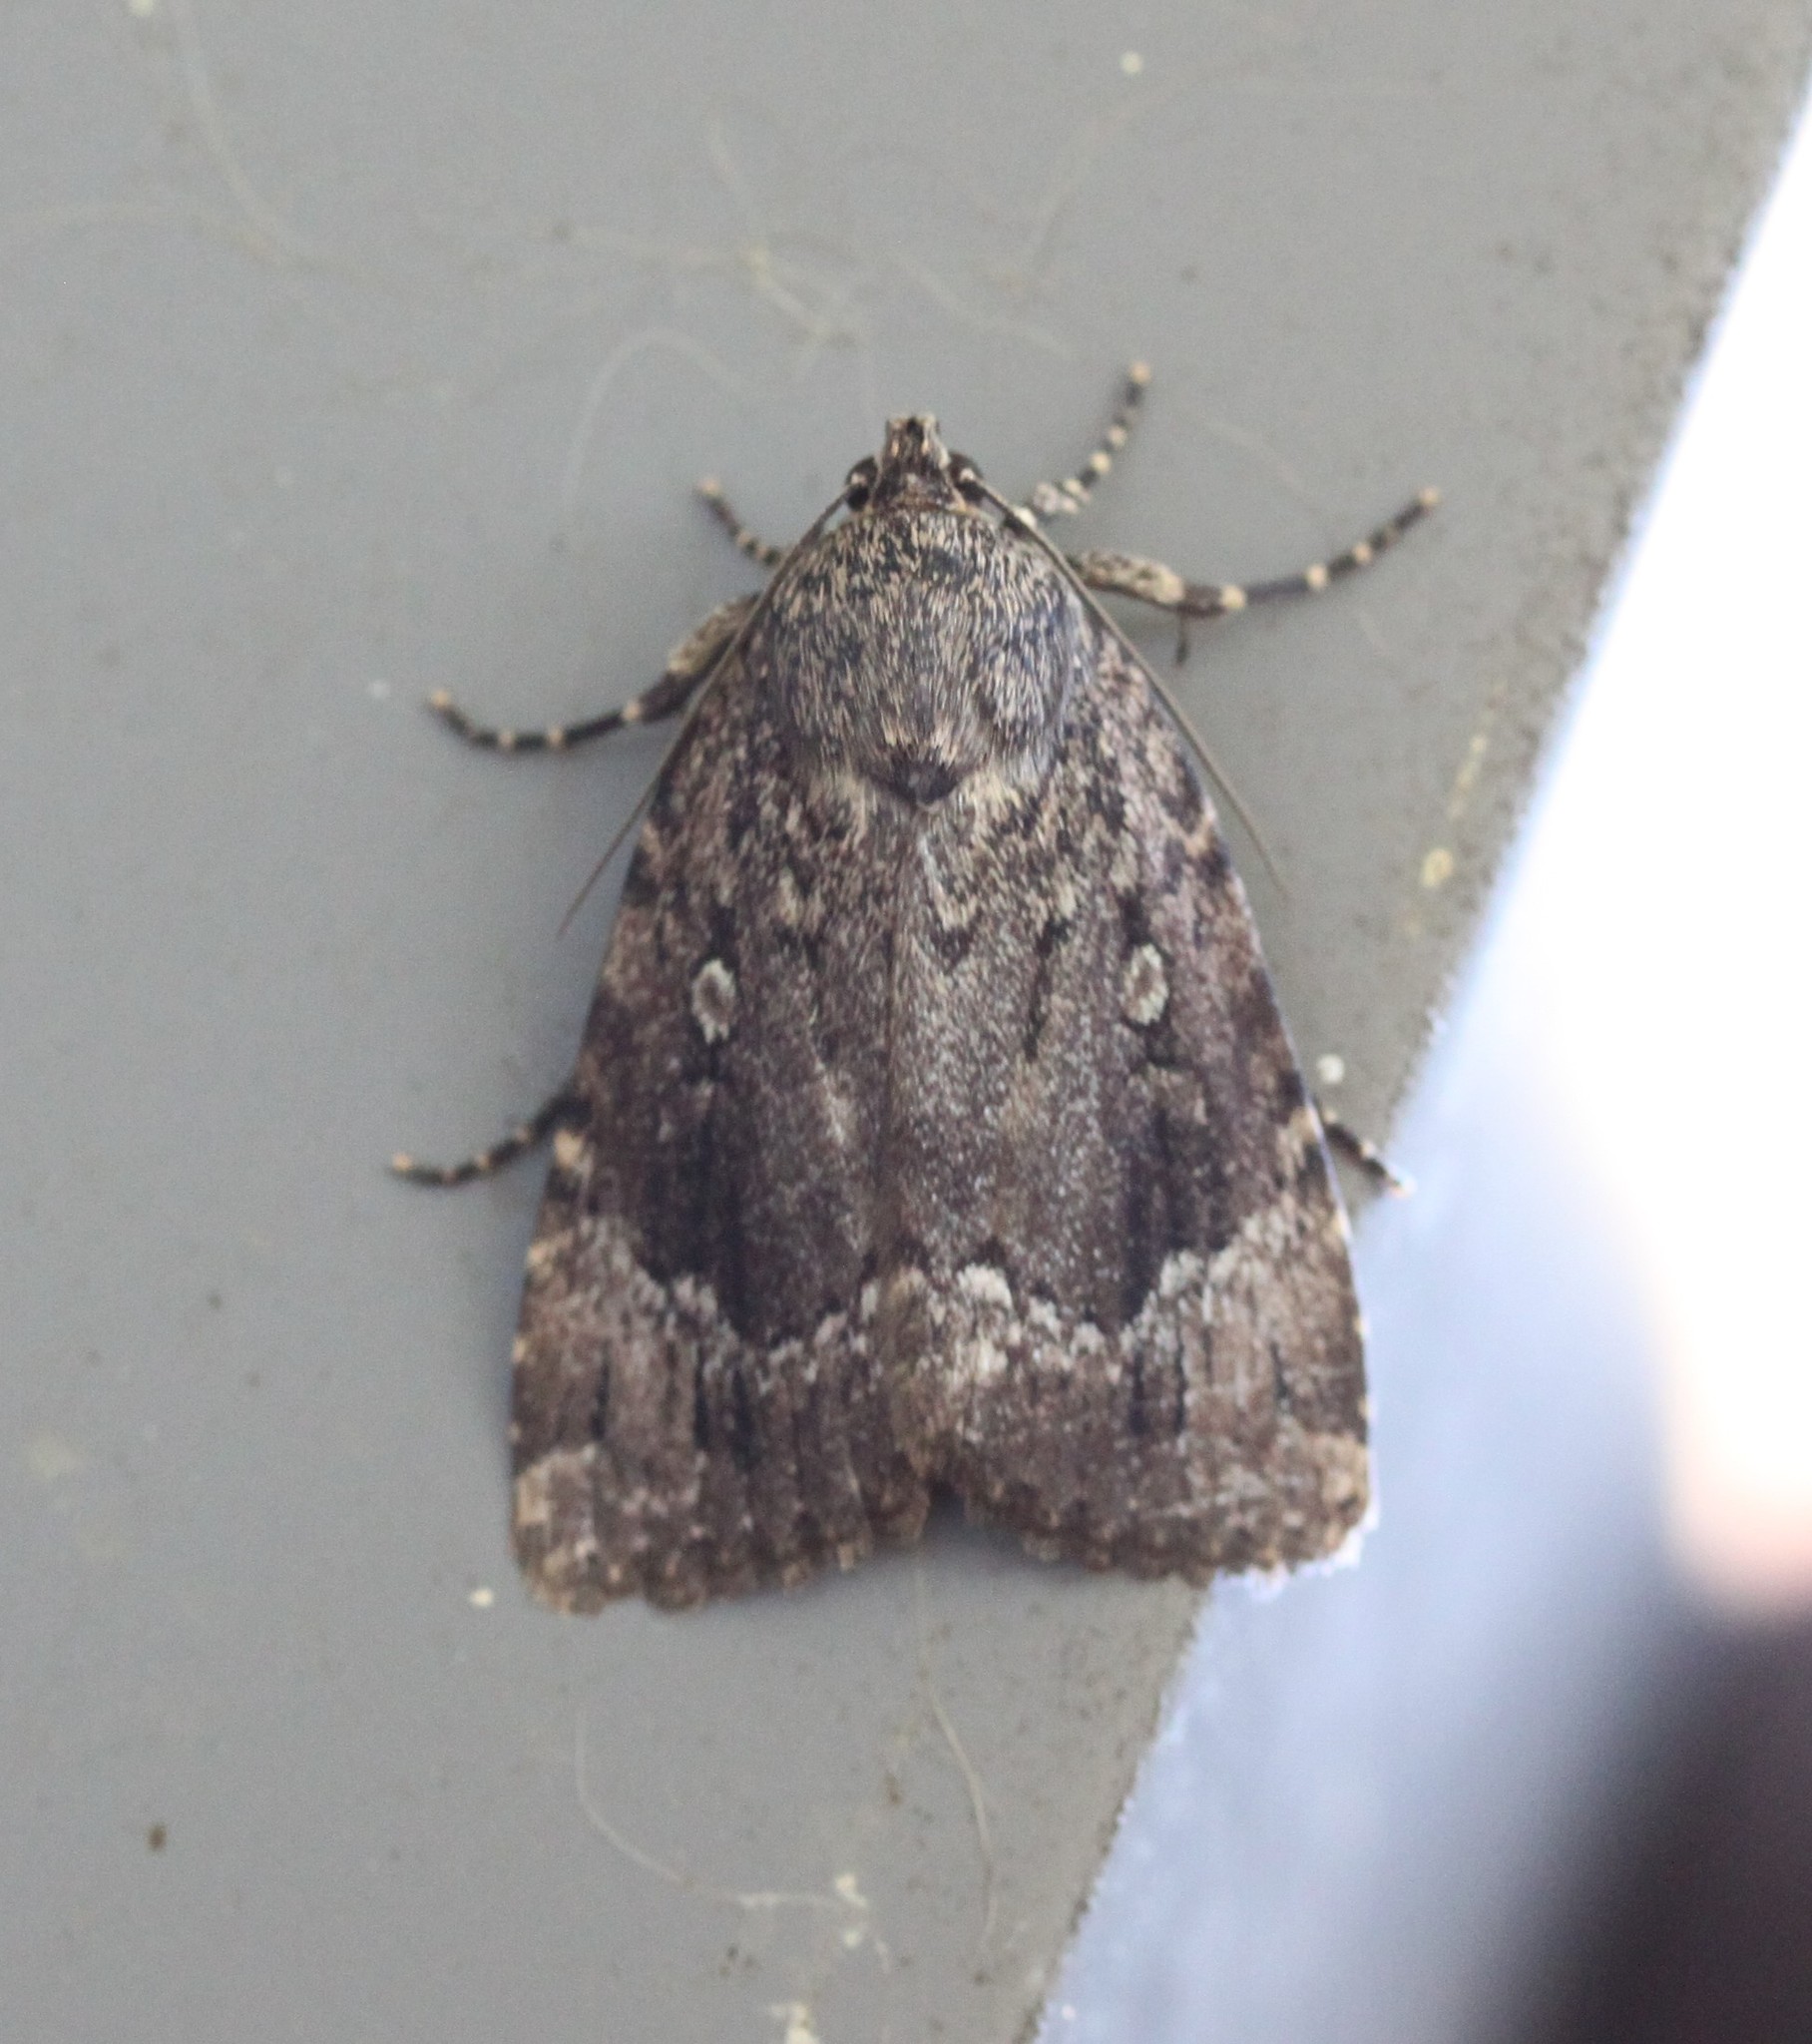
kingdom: Animalia
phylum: Arthropoda
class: Insecta
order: Lepidoptera
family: Noctuidae
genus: Amphipyra
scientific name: Amphipyra pyramidoides
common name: American copper underwing
